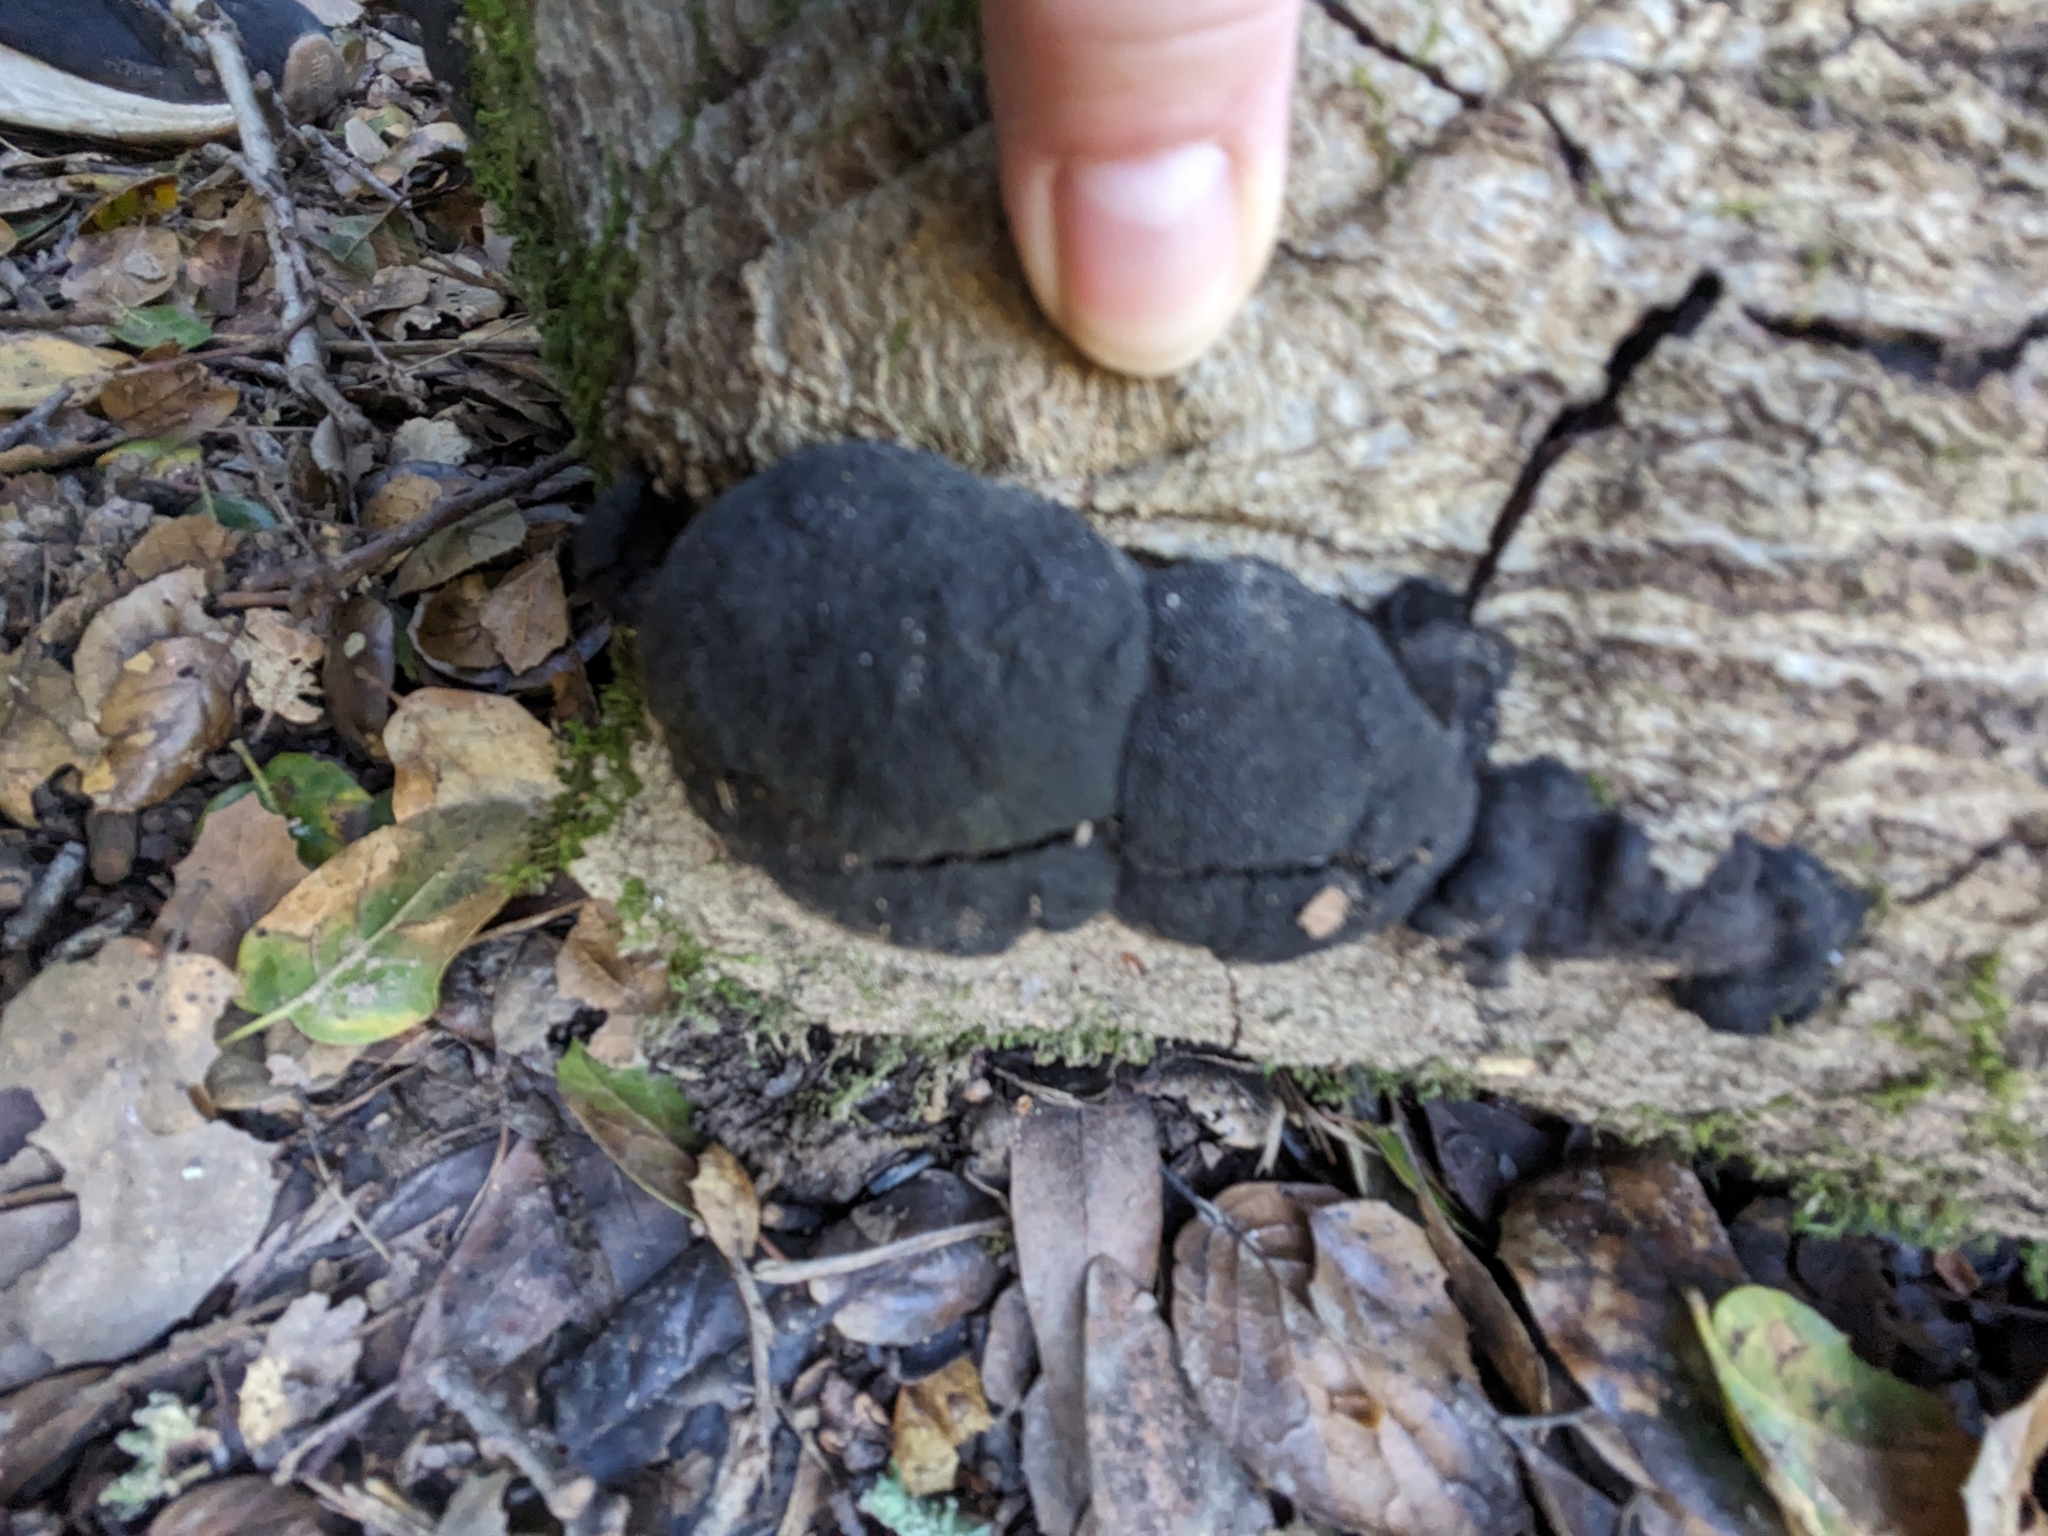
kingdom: Fungi
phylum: Ascomycota
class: Sordariomycetes
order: Xylariales
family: Hypoxylaceae
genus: Annulohypoxylon
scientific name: Annulohypoxylon thouarsianum
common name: Cramp balls
